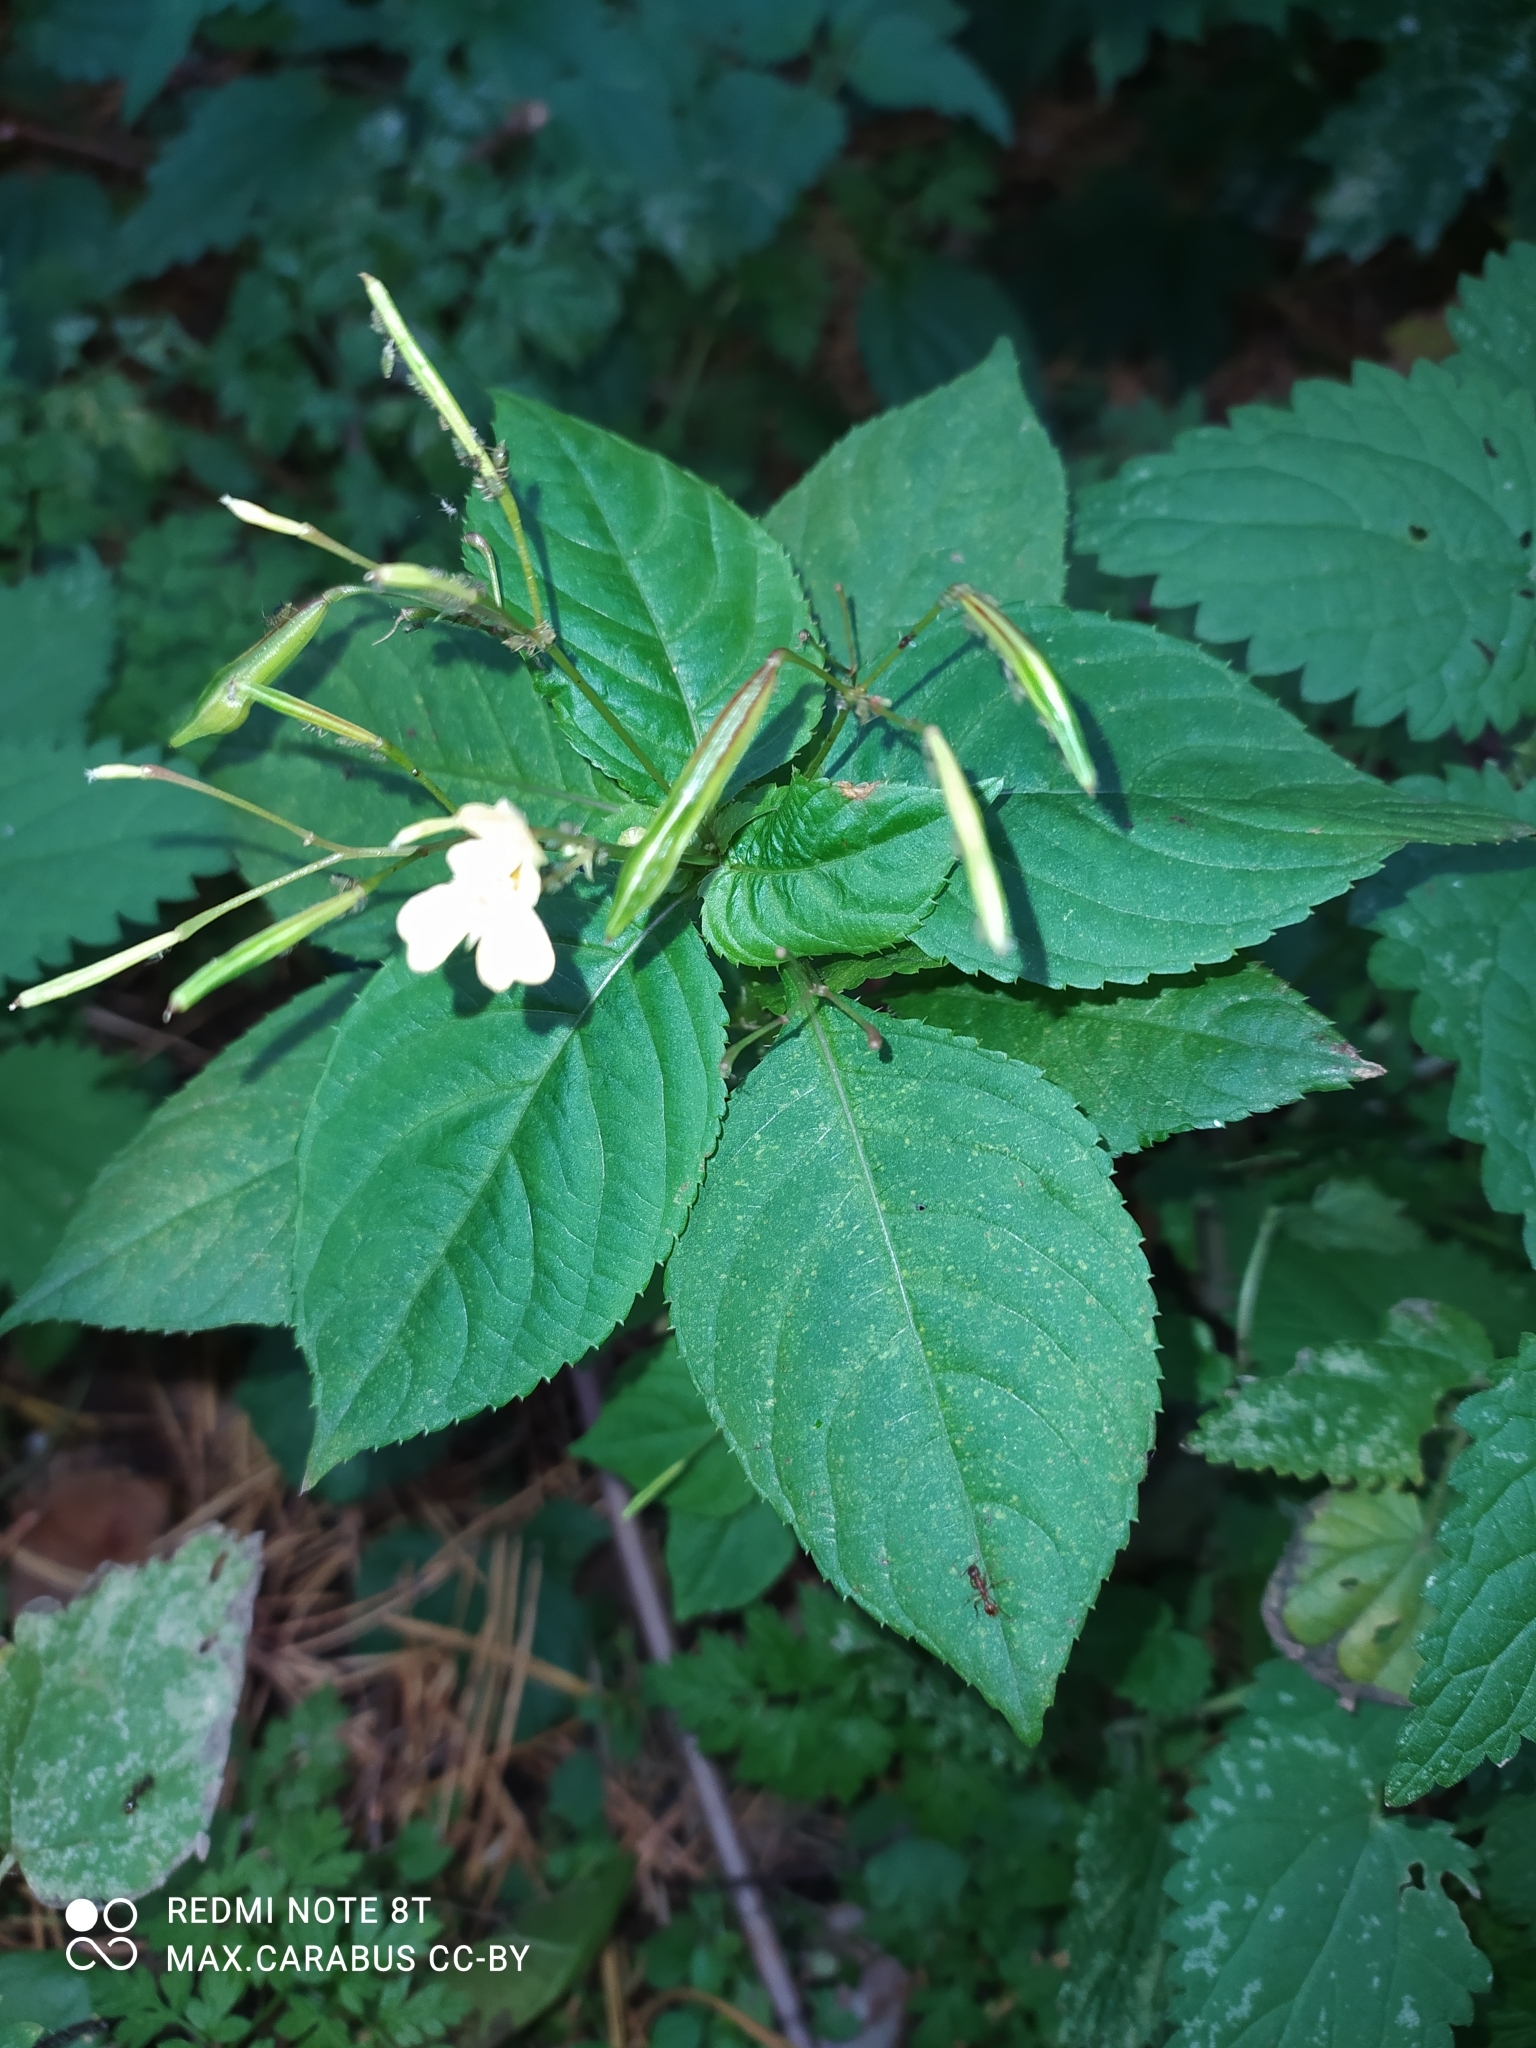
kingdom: Plantae
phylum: Tracheophyta
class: Magnoliopsida
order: Ericales
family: Balsaminaceae
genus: Impatiens
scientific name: Impatiens parviflora
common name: Small balsam
